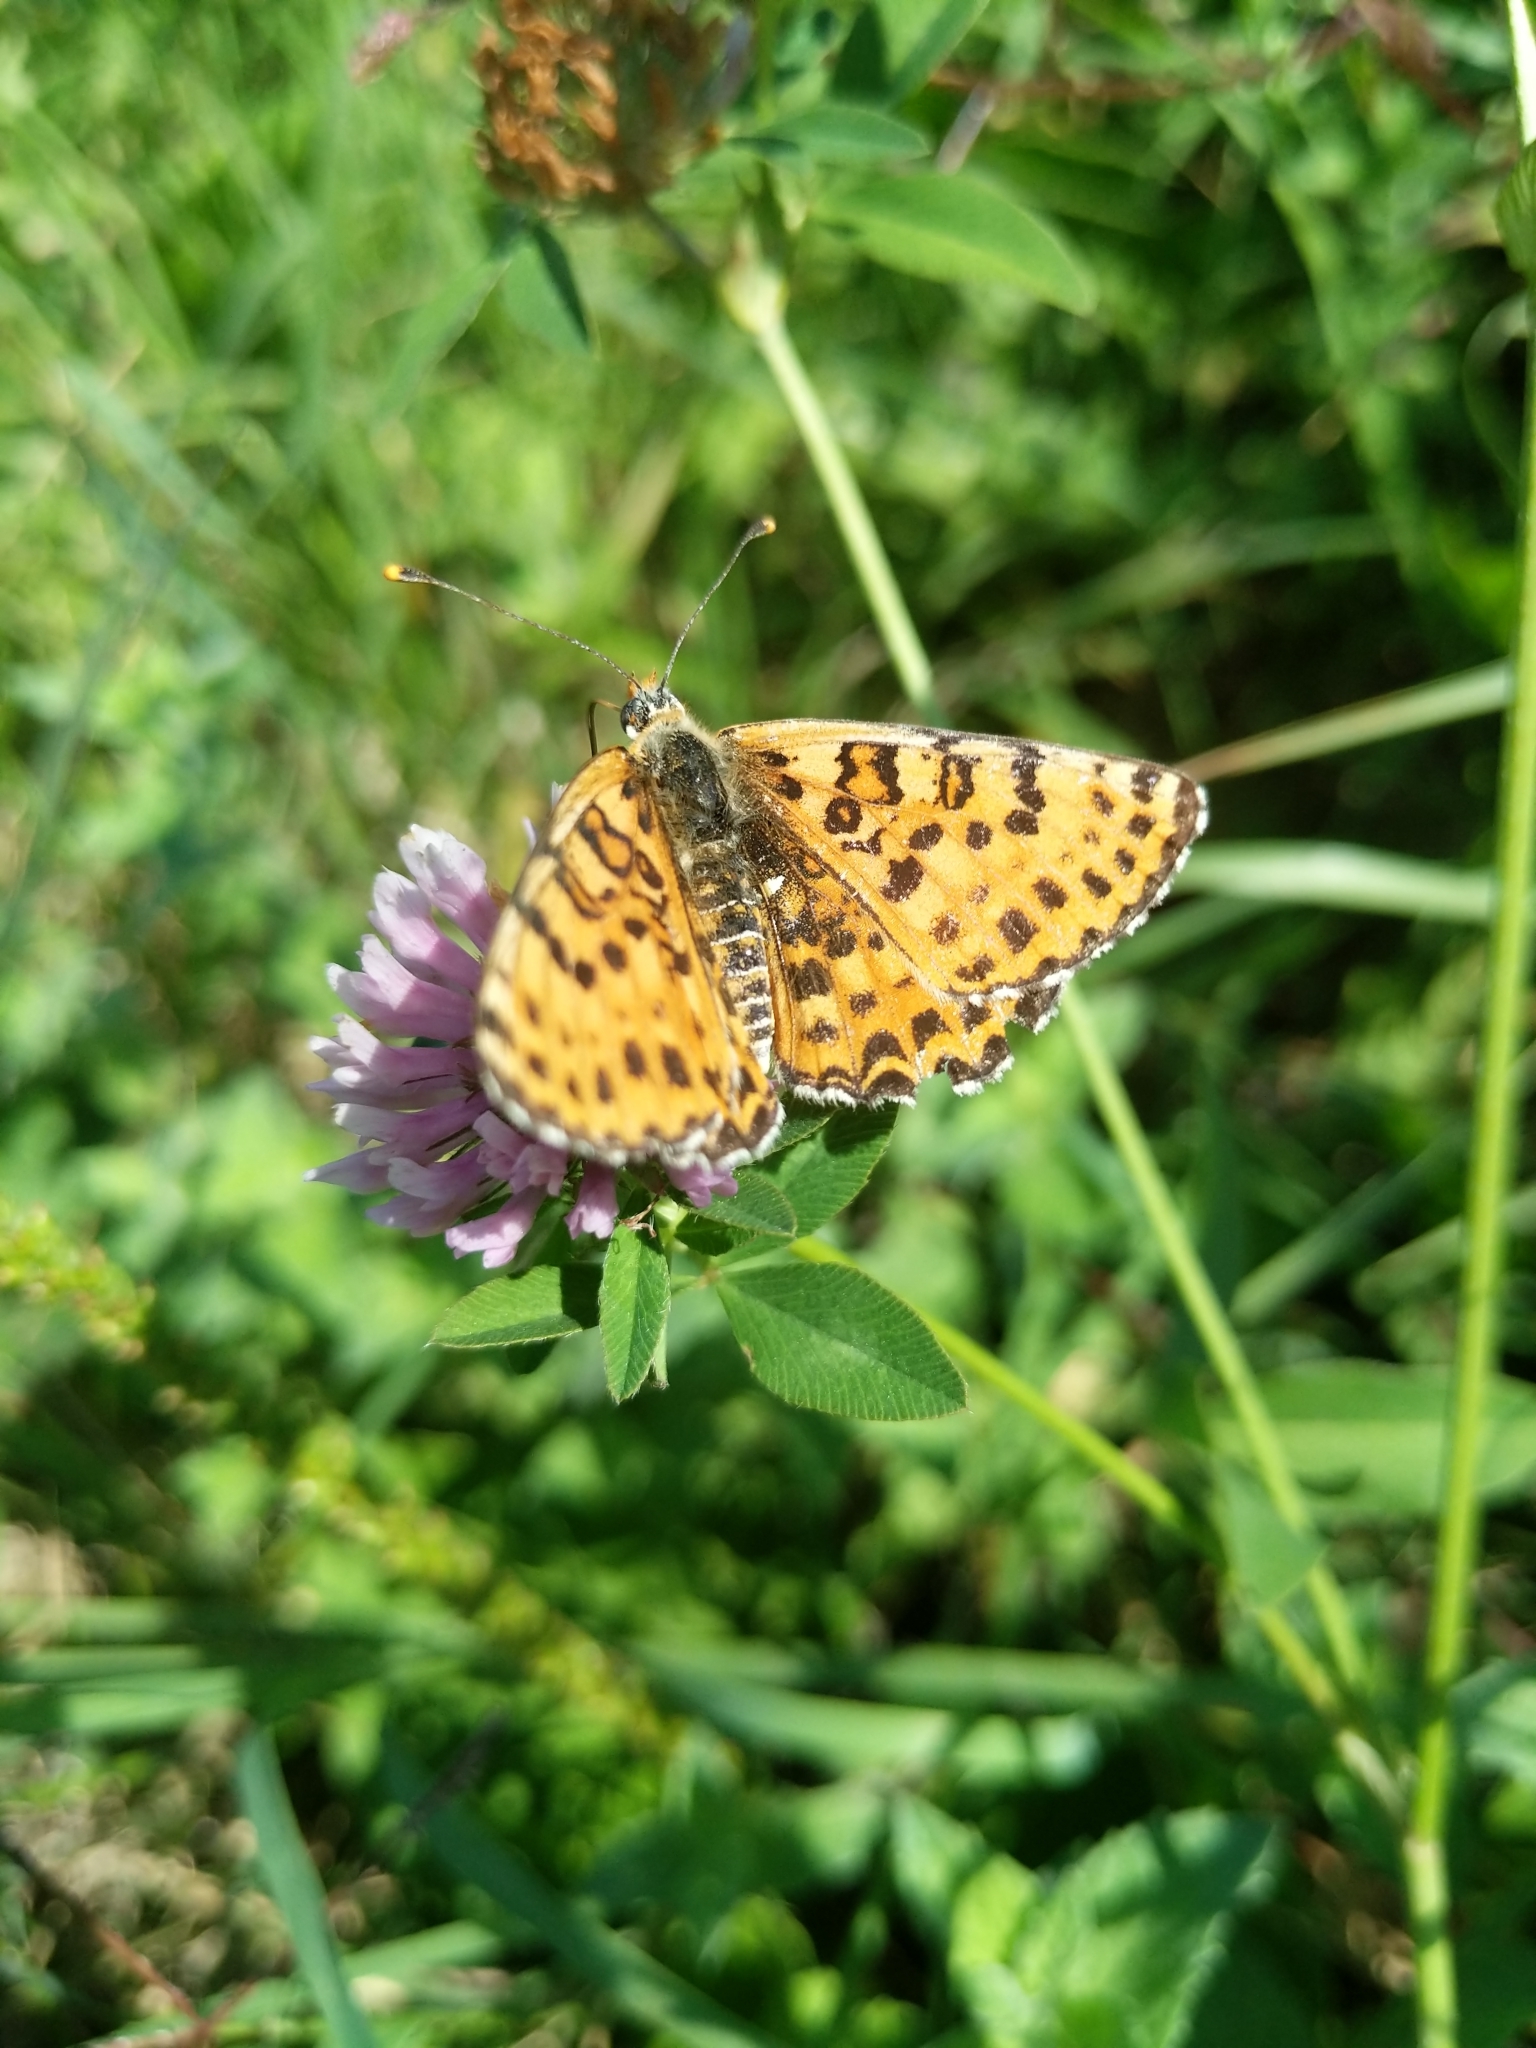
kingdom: Animalia
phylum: Arthropoda
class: Insecta
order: Lepidoptera
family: Nymphalidae
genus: Melitaea
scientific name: Melitaea didyma
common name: Spotted fritillary
